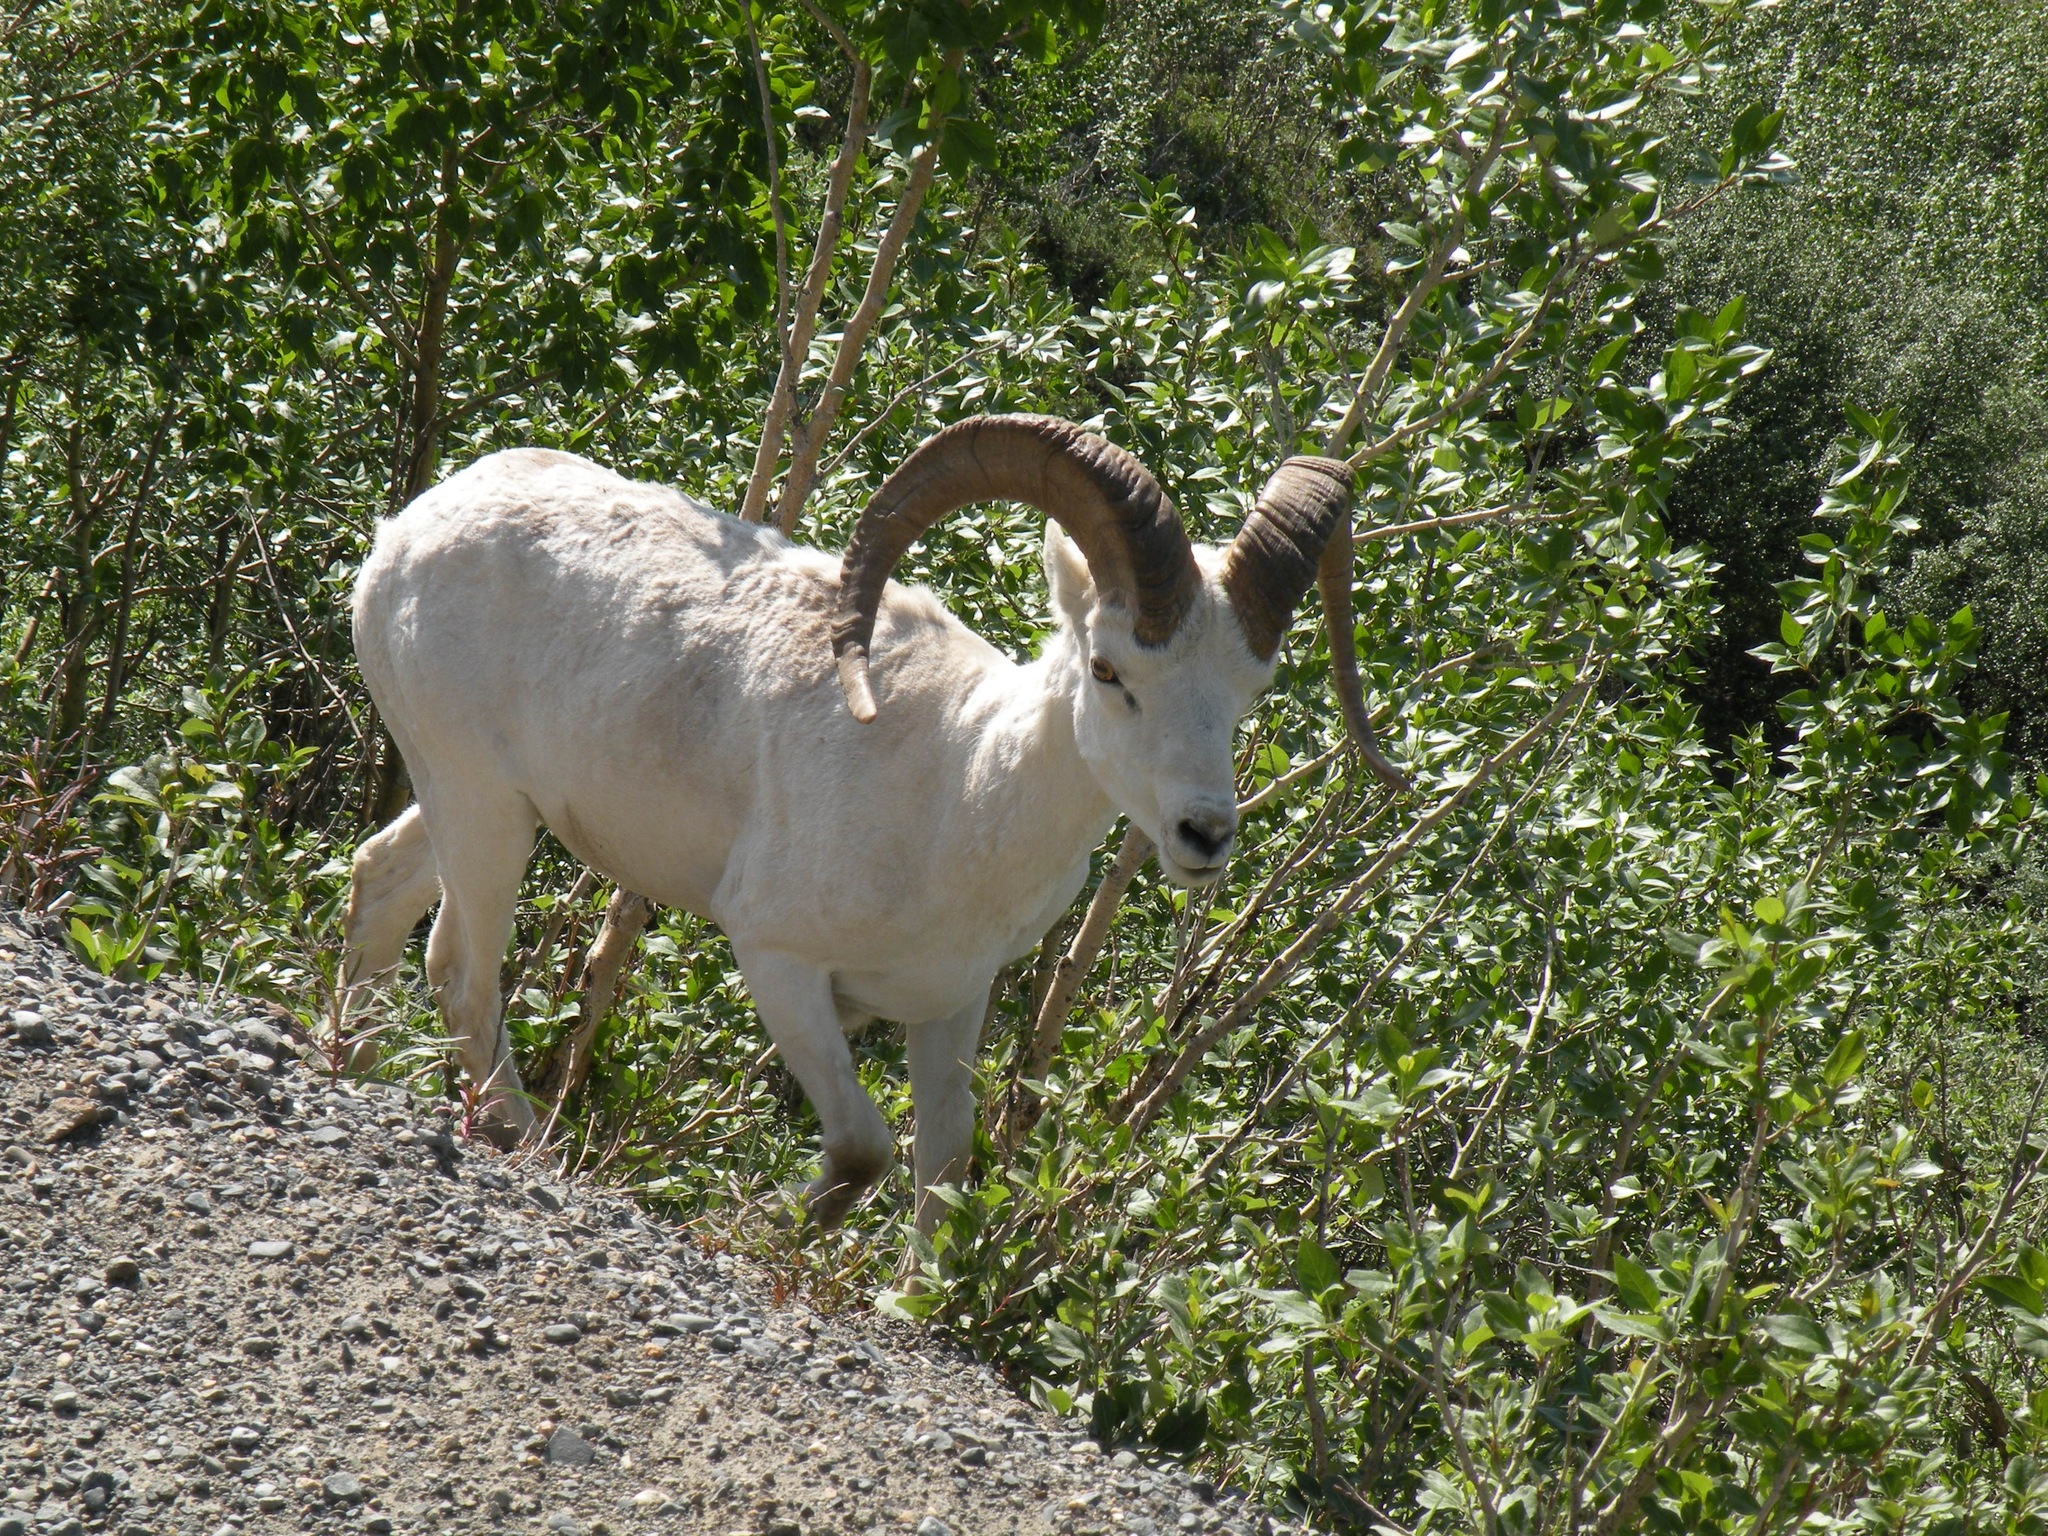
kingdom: Animalia
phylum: Chordata
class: Mammalia
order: Artiodactyla
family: Bovidae
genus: Ovis
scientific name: Ovis dalli
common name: Dall's sheep
